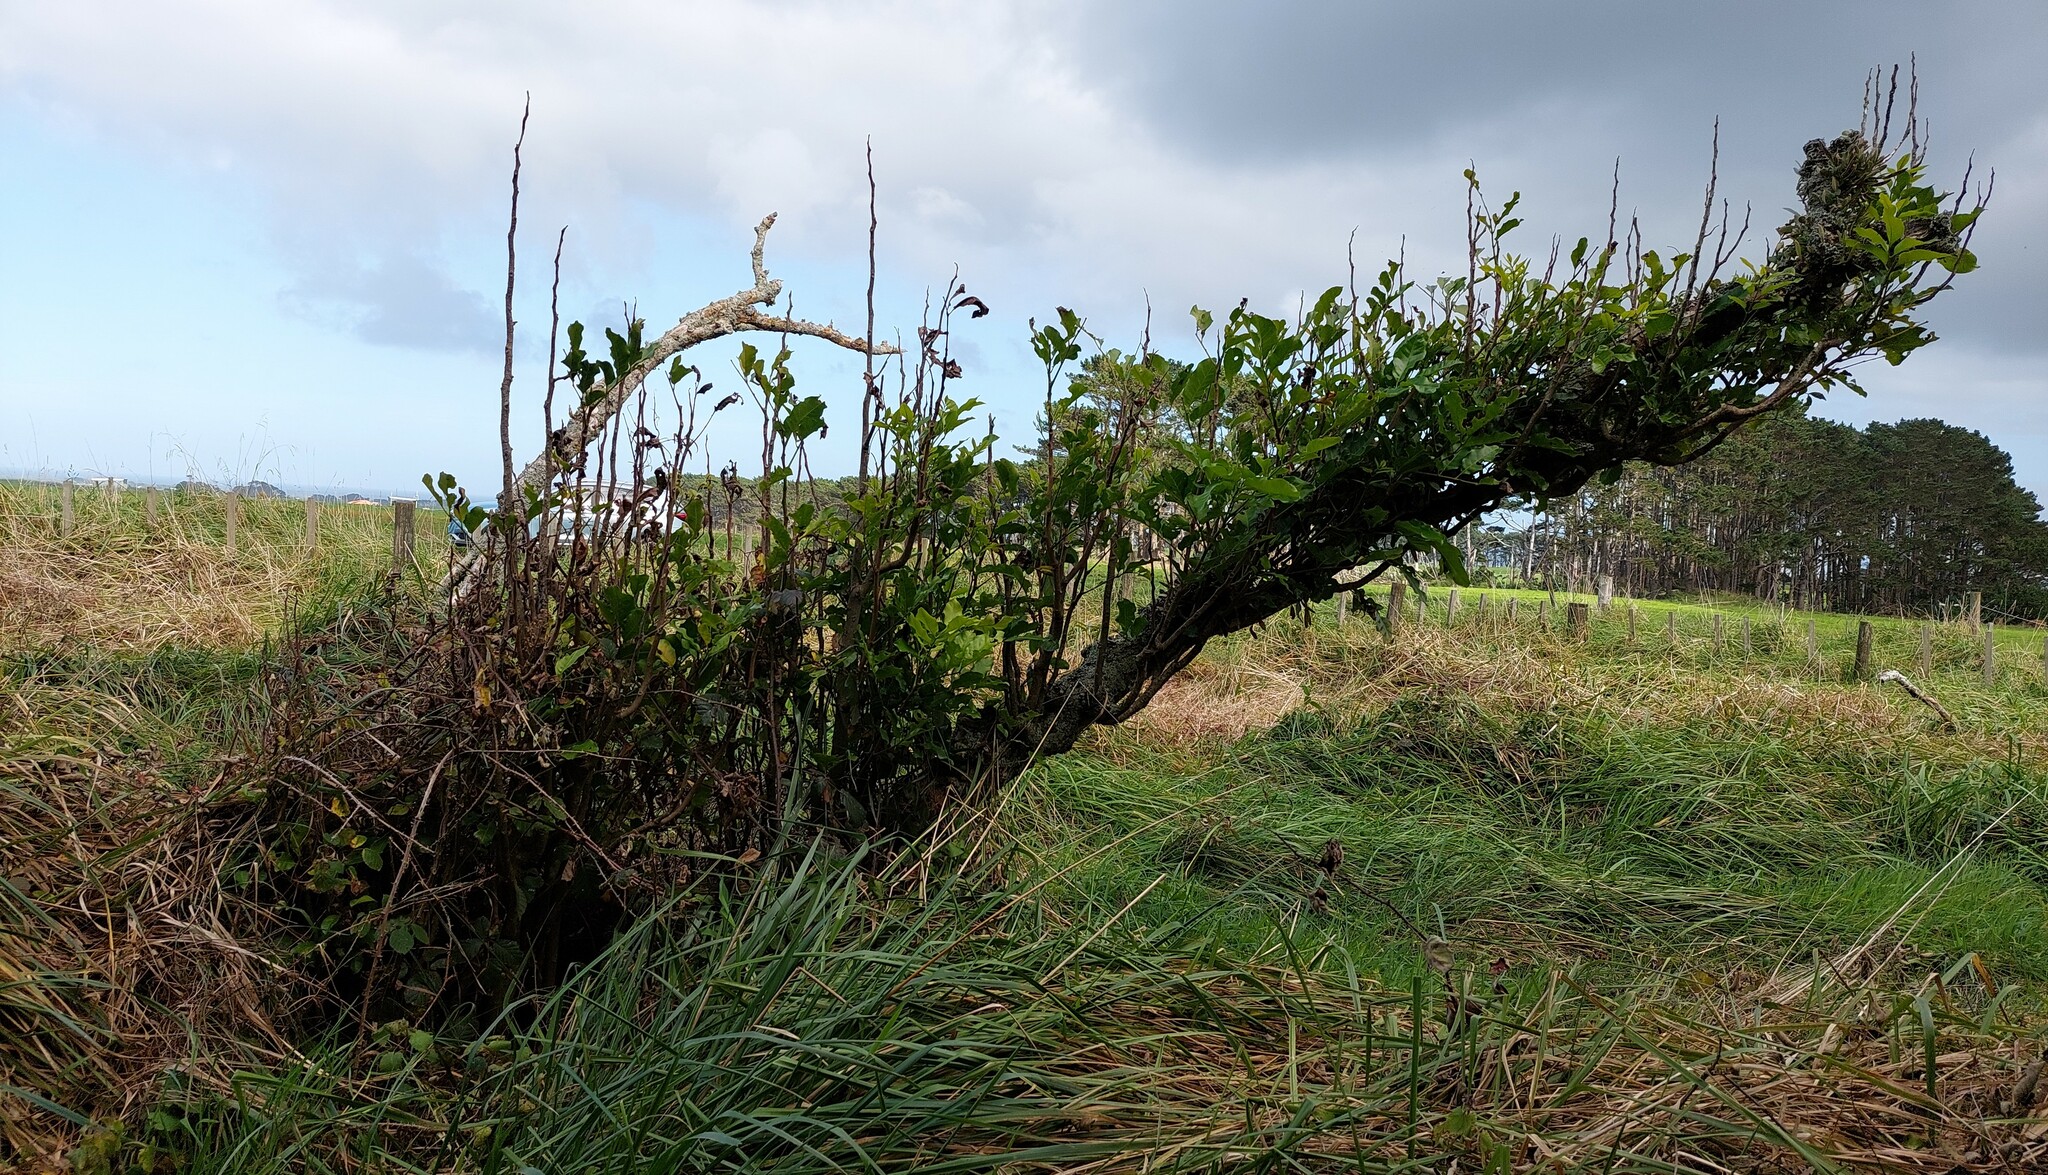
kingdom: Plantae
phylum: Tracheophyta
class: Magnoliopsida
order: Sapindales
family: Meliaceae
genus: Didymocheton
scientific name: Didymocheton spectabilis
